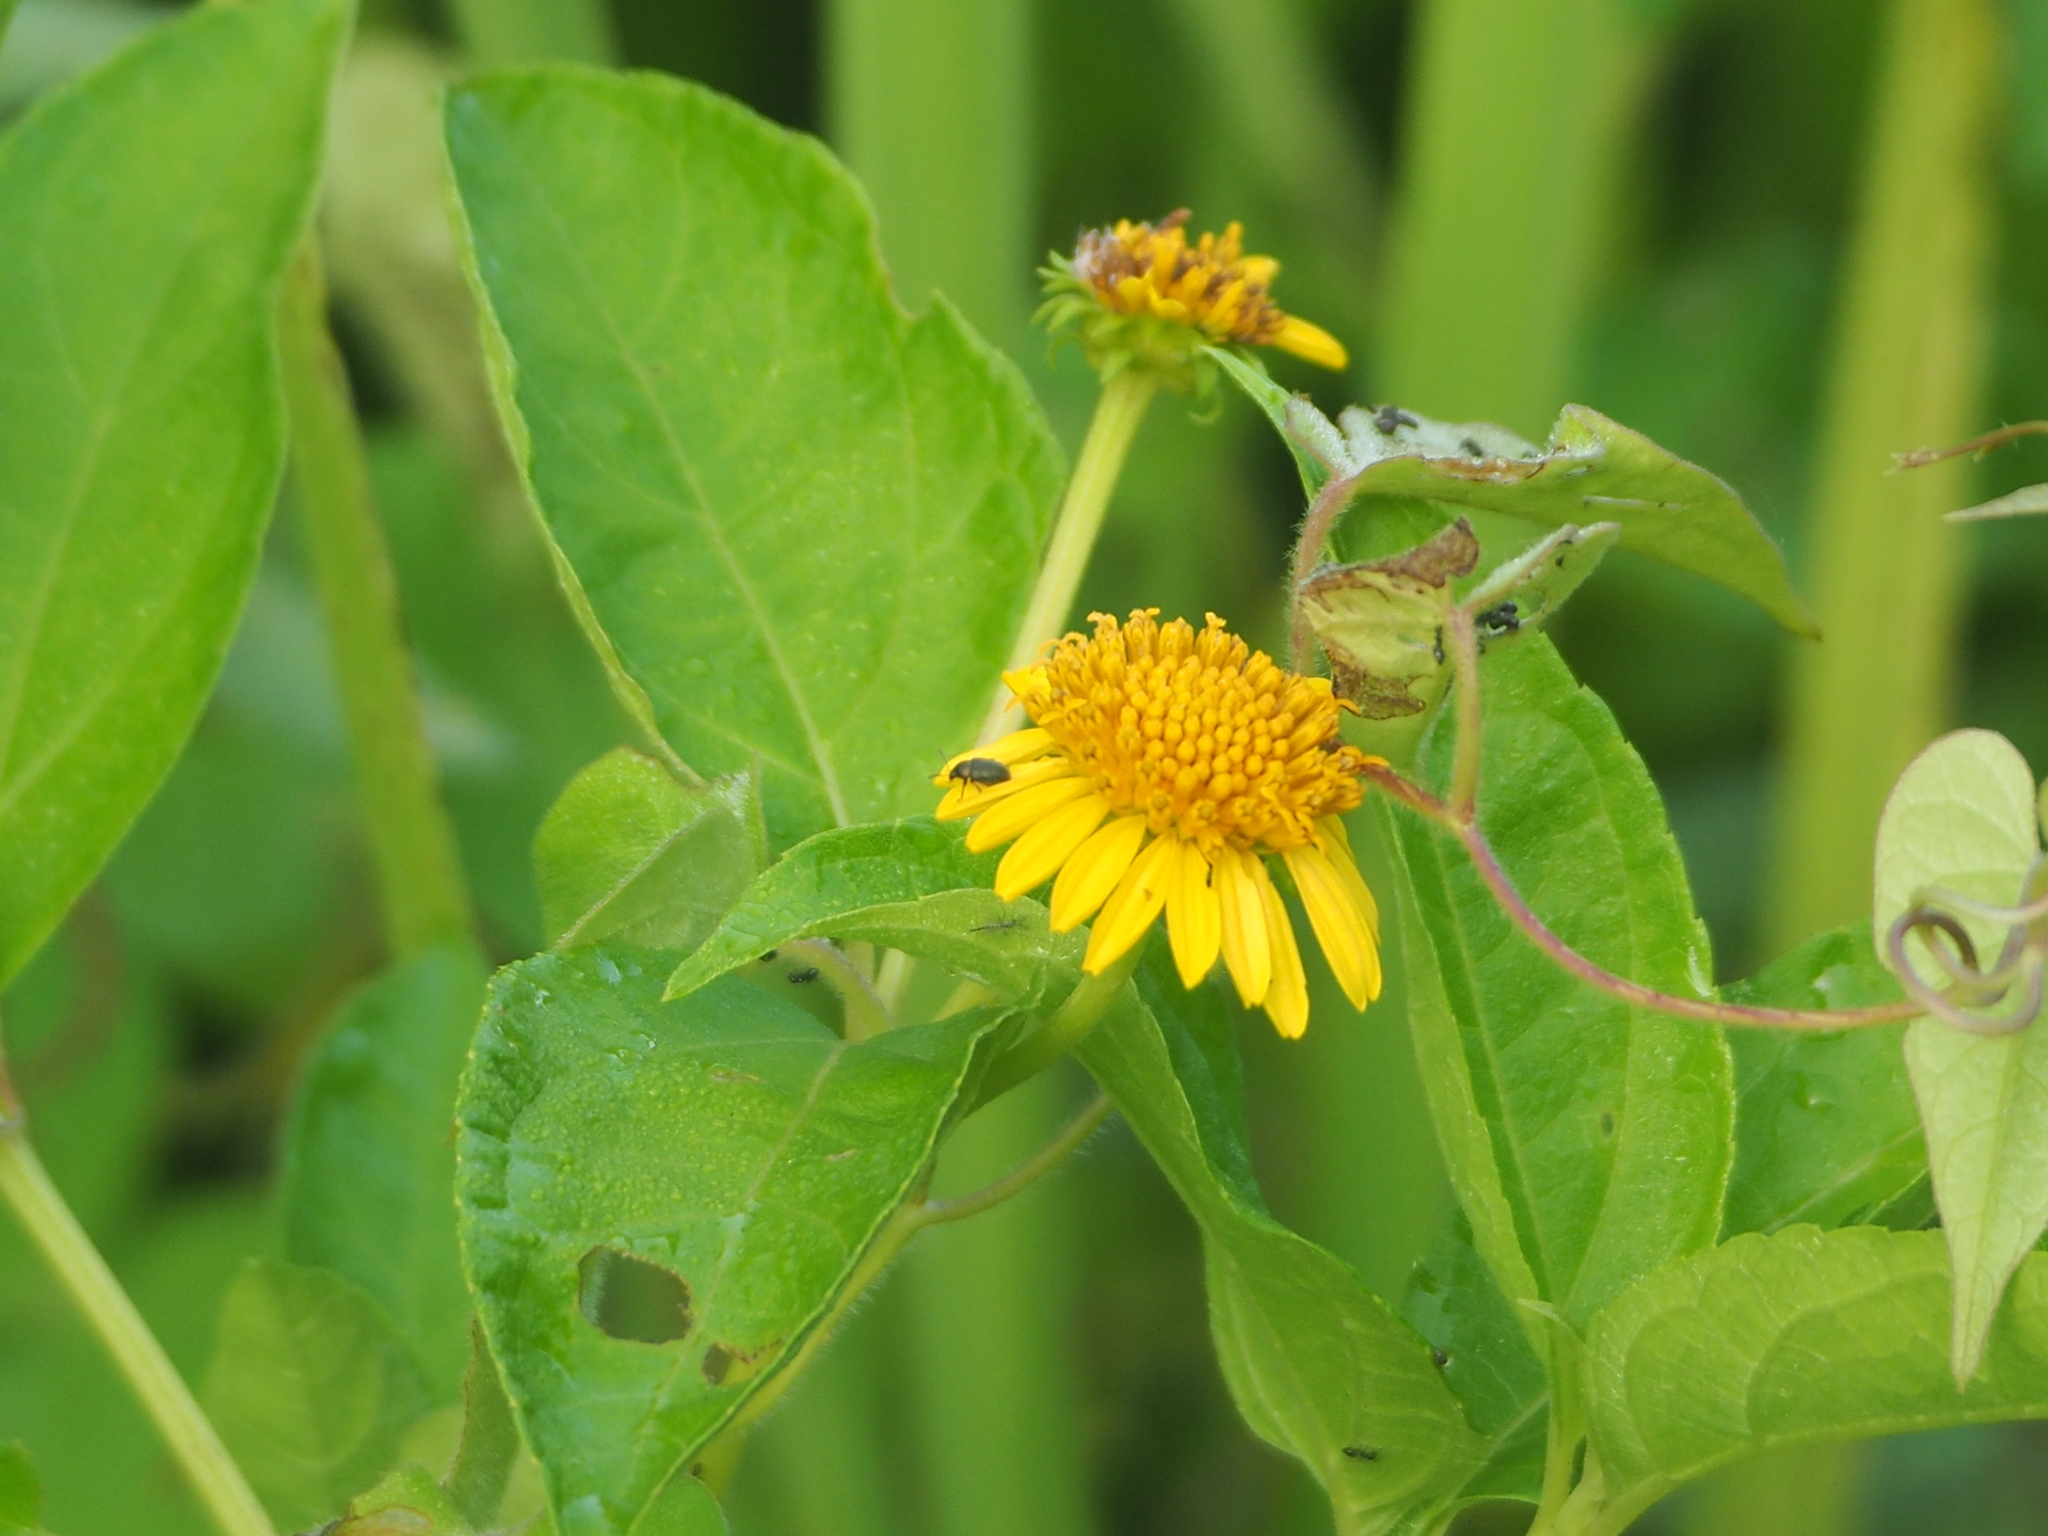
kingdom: Plantae
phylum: Tracheophyta
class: Magnoliopsida
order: Asterales
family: Asteraceae
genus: Tilesia
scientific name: Tilesia baccata
